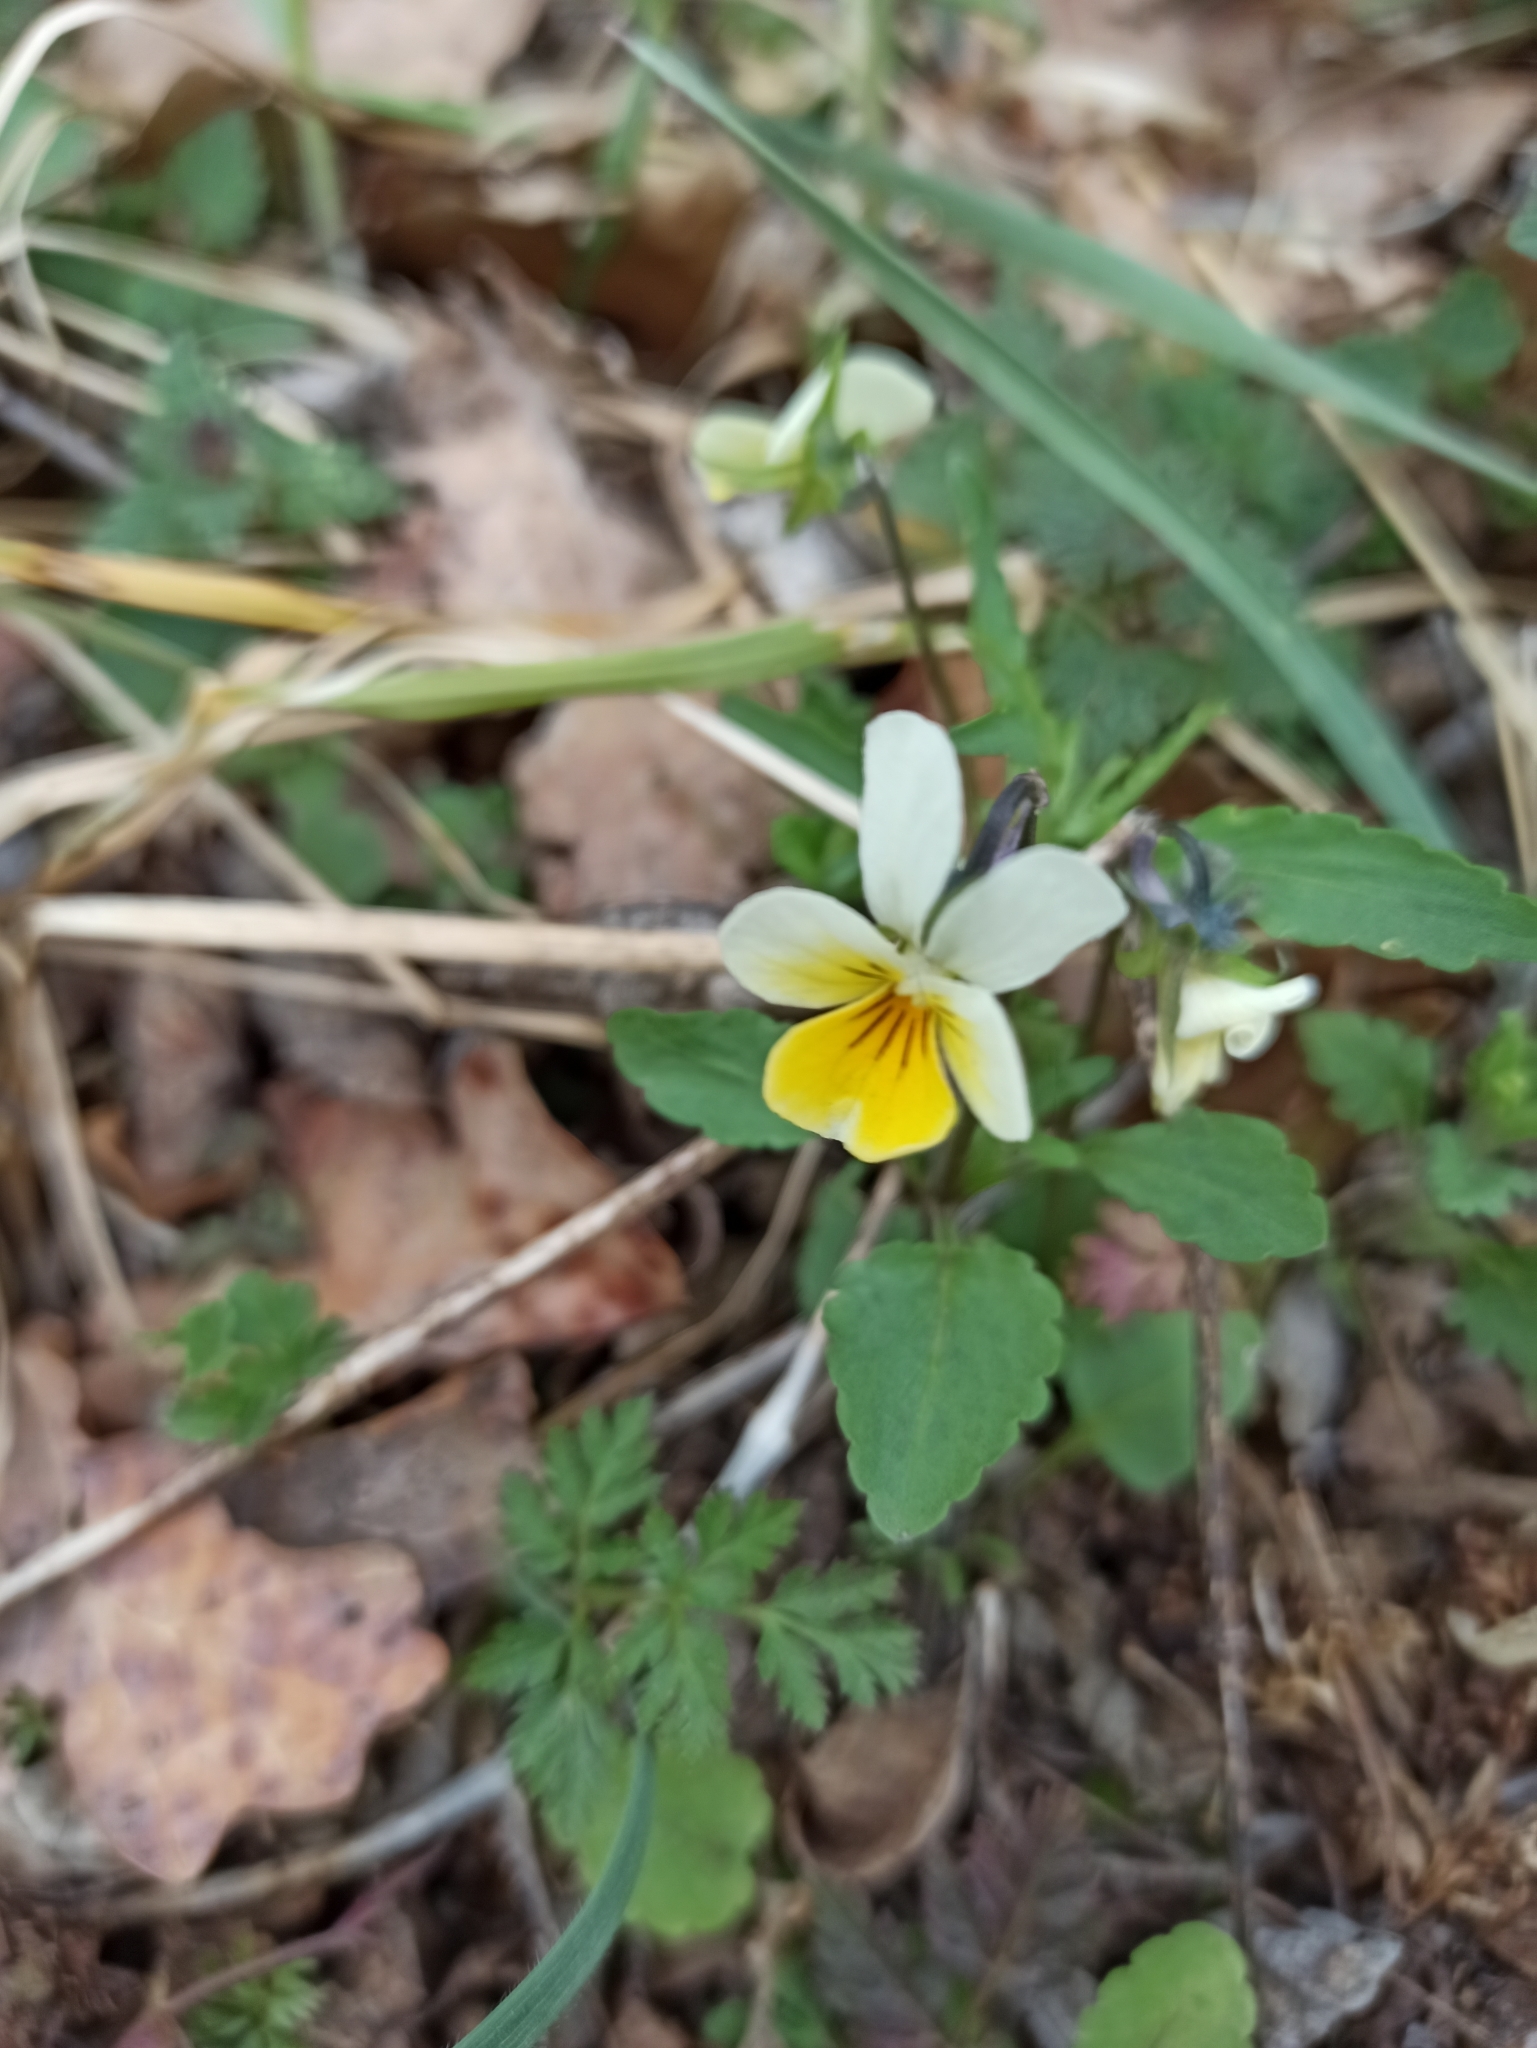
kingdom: Plantae
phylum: Tracheophyta
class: Magnoliopsida
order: Malpighiales
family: Violaceae
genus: Viola
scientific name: Viola arvensis
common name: Field pansy
